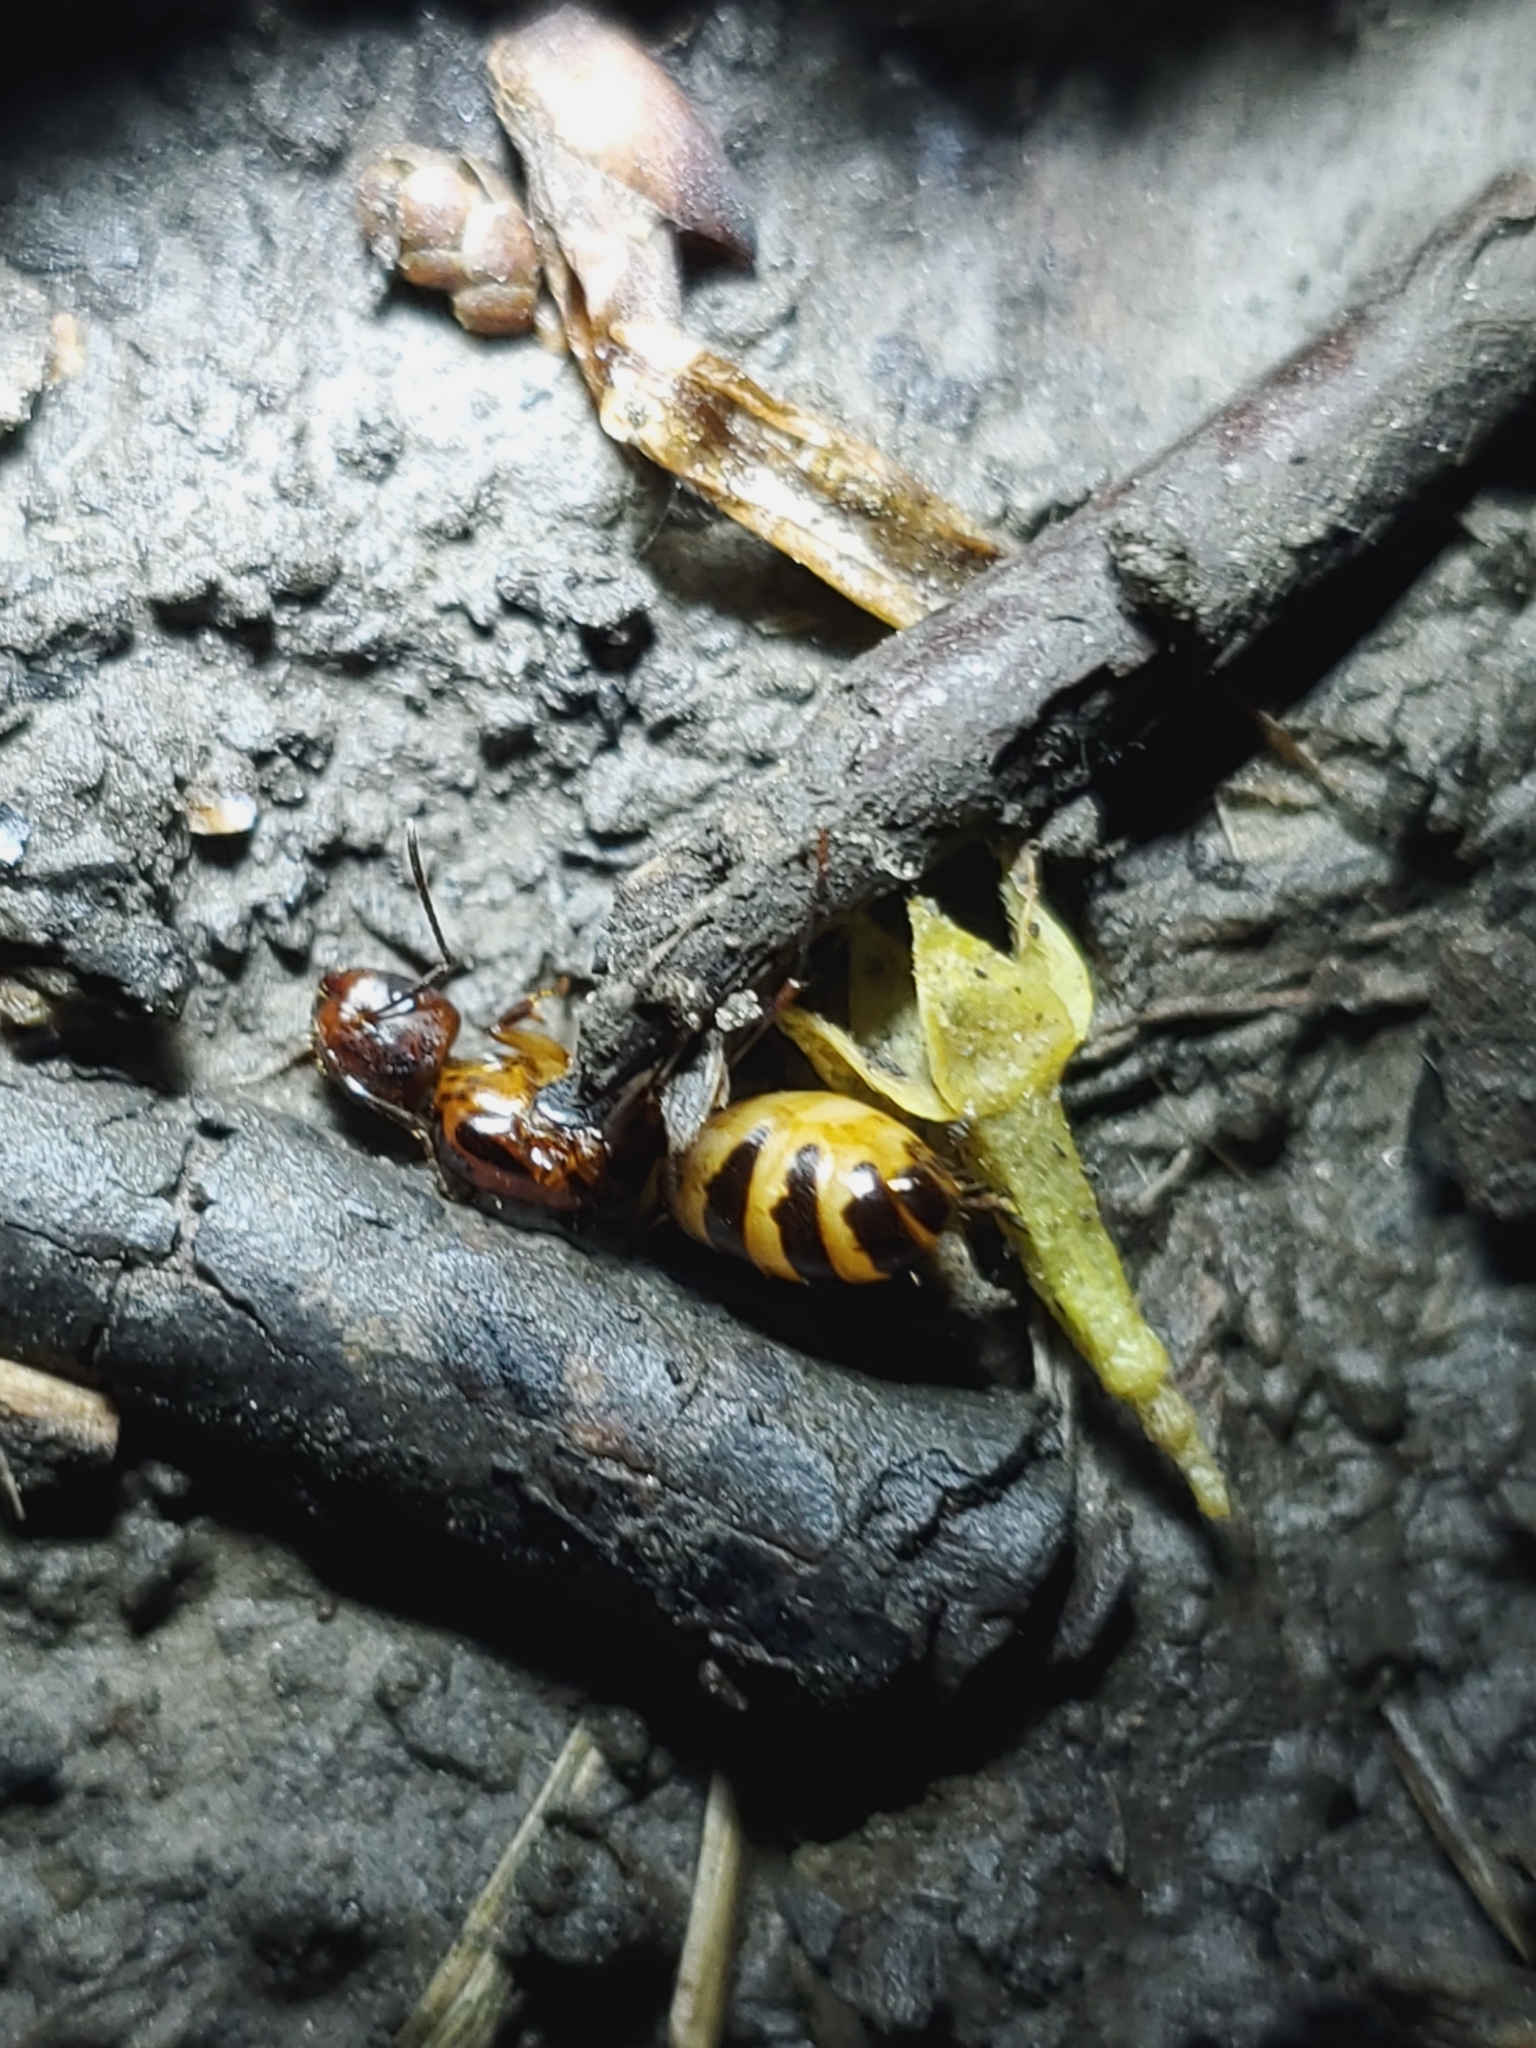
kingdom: Animalia
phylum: Arthropoda
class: Insecta
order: Hymenoptera
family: Formicidae
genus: Camponotus
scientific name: Camponotus subbarbatus
